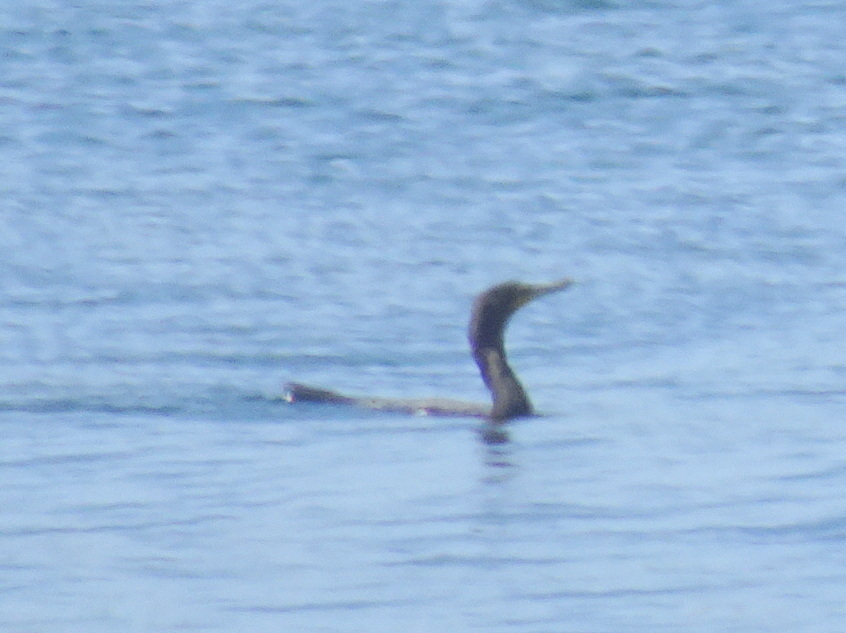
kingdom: Animalia
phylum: Chordata
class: Aves
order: Suliformes
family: Phalacrocoracidae
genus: Phalacrocorax
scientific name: Phalacrocorax auritus
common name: Double-crested cormorant
